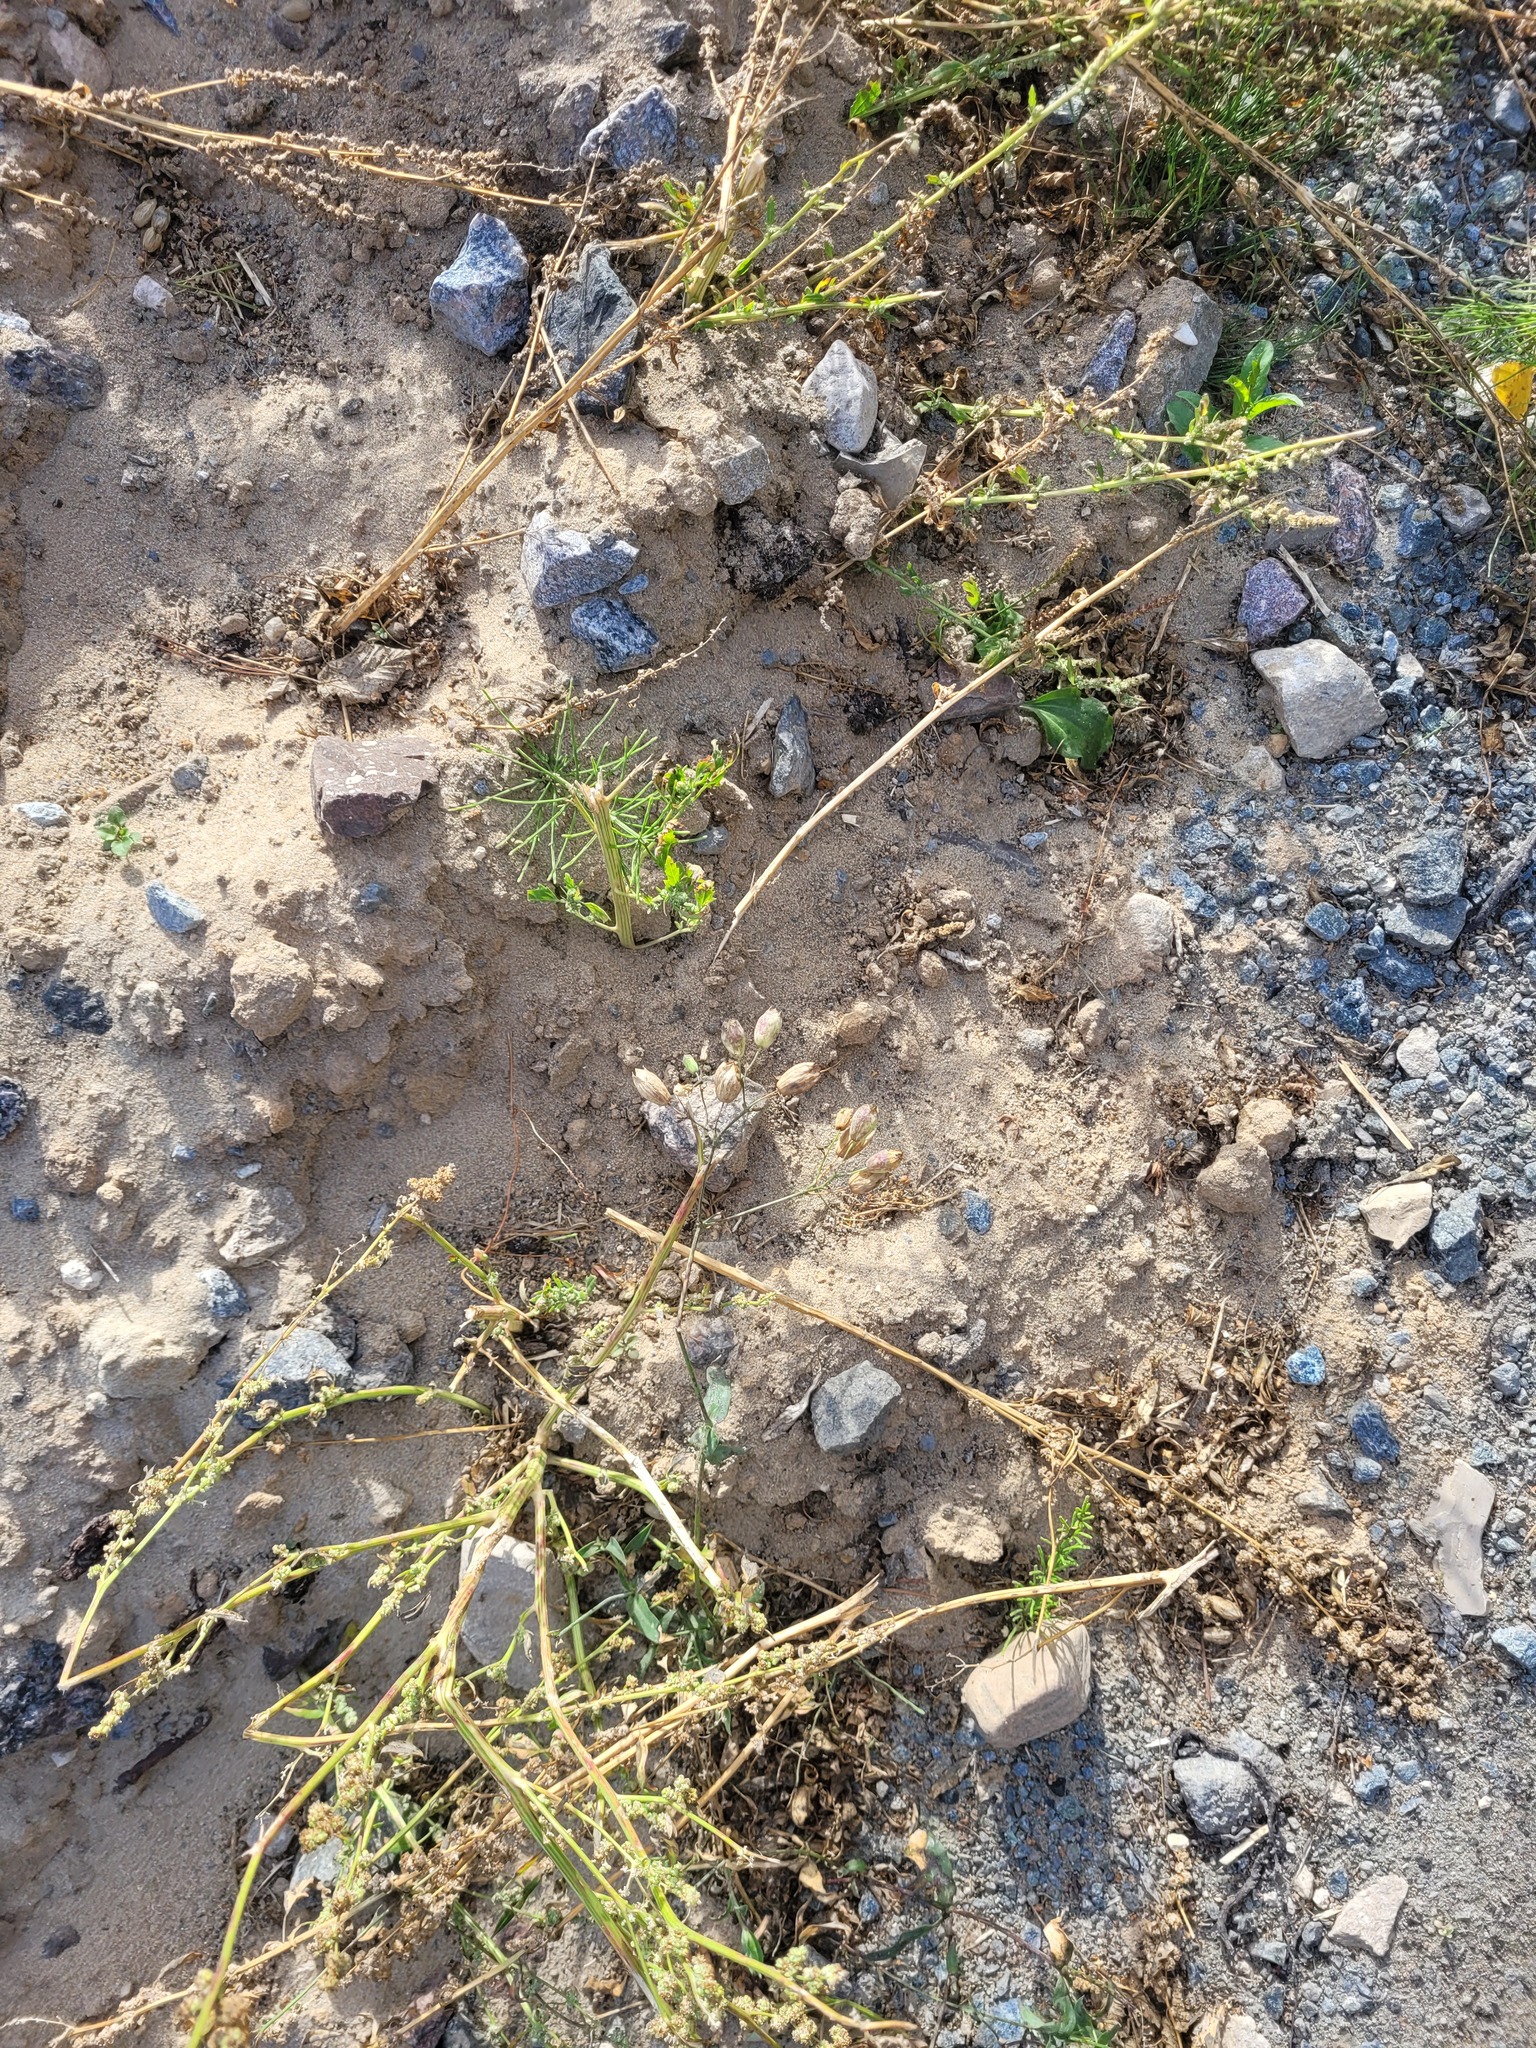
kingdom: Plantae
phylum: Tracheophyta
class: Magnoliopsida
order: Caryophyllales
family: Caryophyllaceae
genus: Silene
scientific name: Silene vulgaris
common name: Bladder campion
